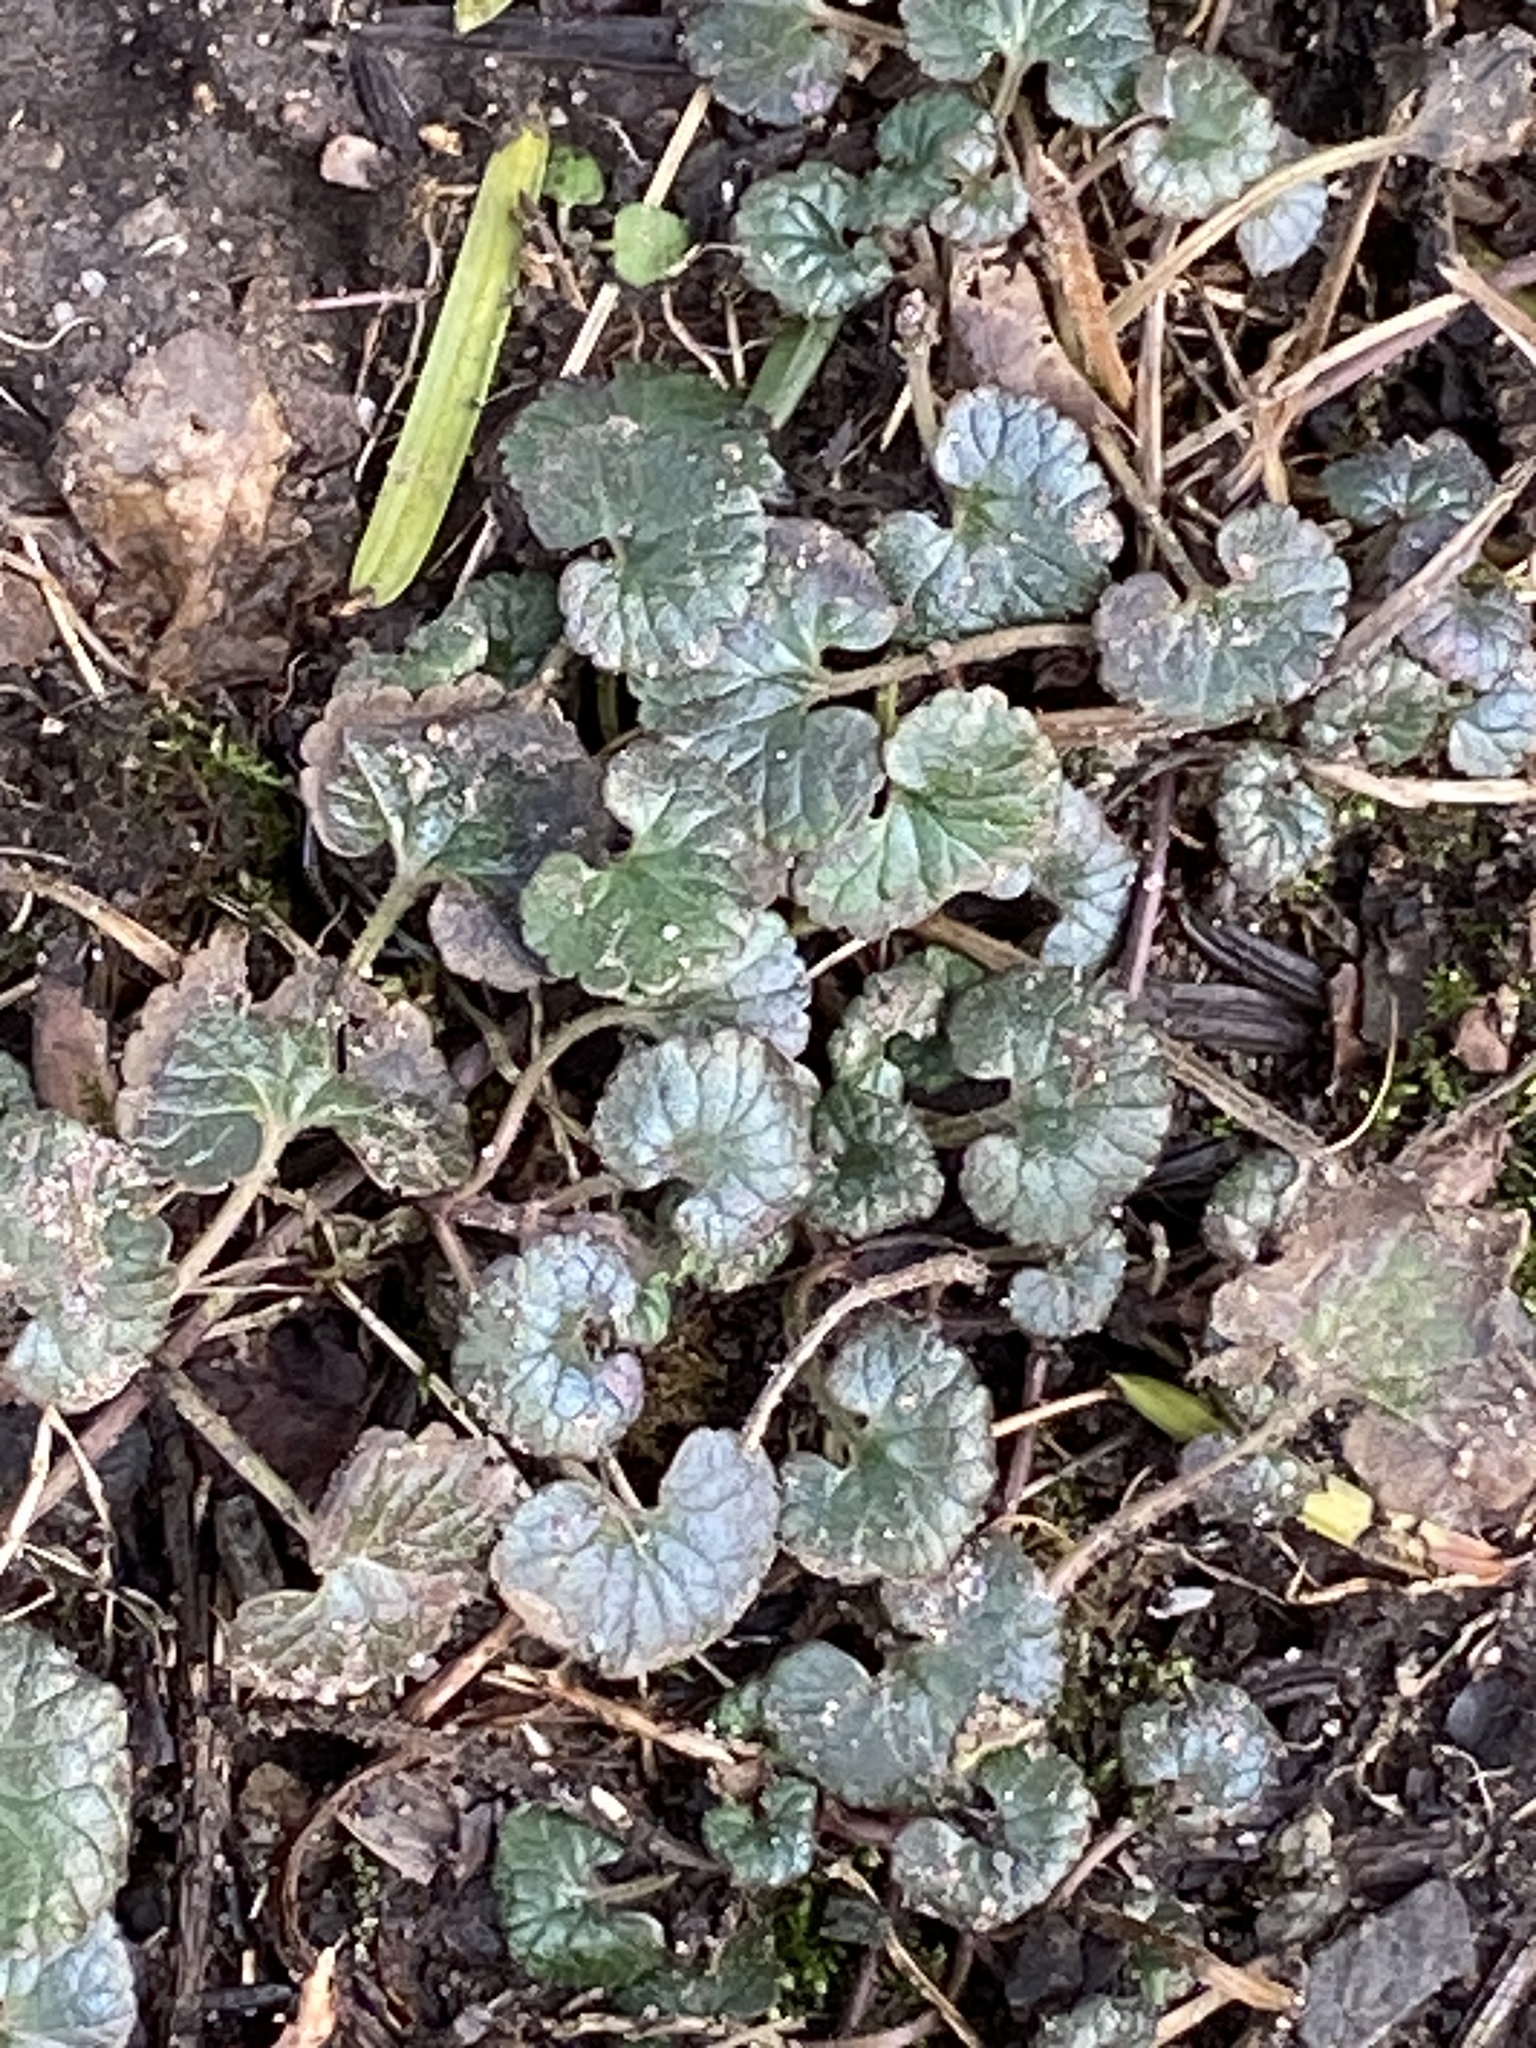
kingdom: Plantae
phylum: Tracheophyta
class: Magnoliopsida
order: Lamiales
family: Lamiaceae
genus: Glechoma
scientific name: Glechoma hederacea
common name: Ground ivy
